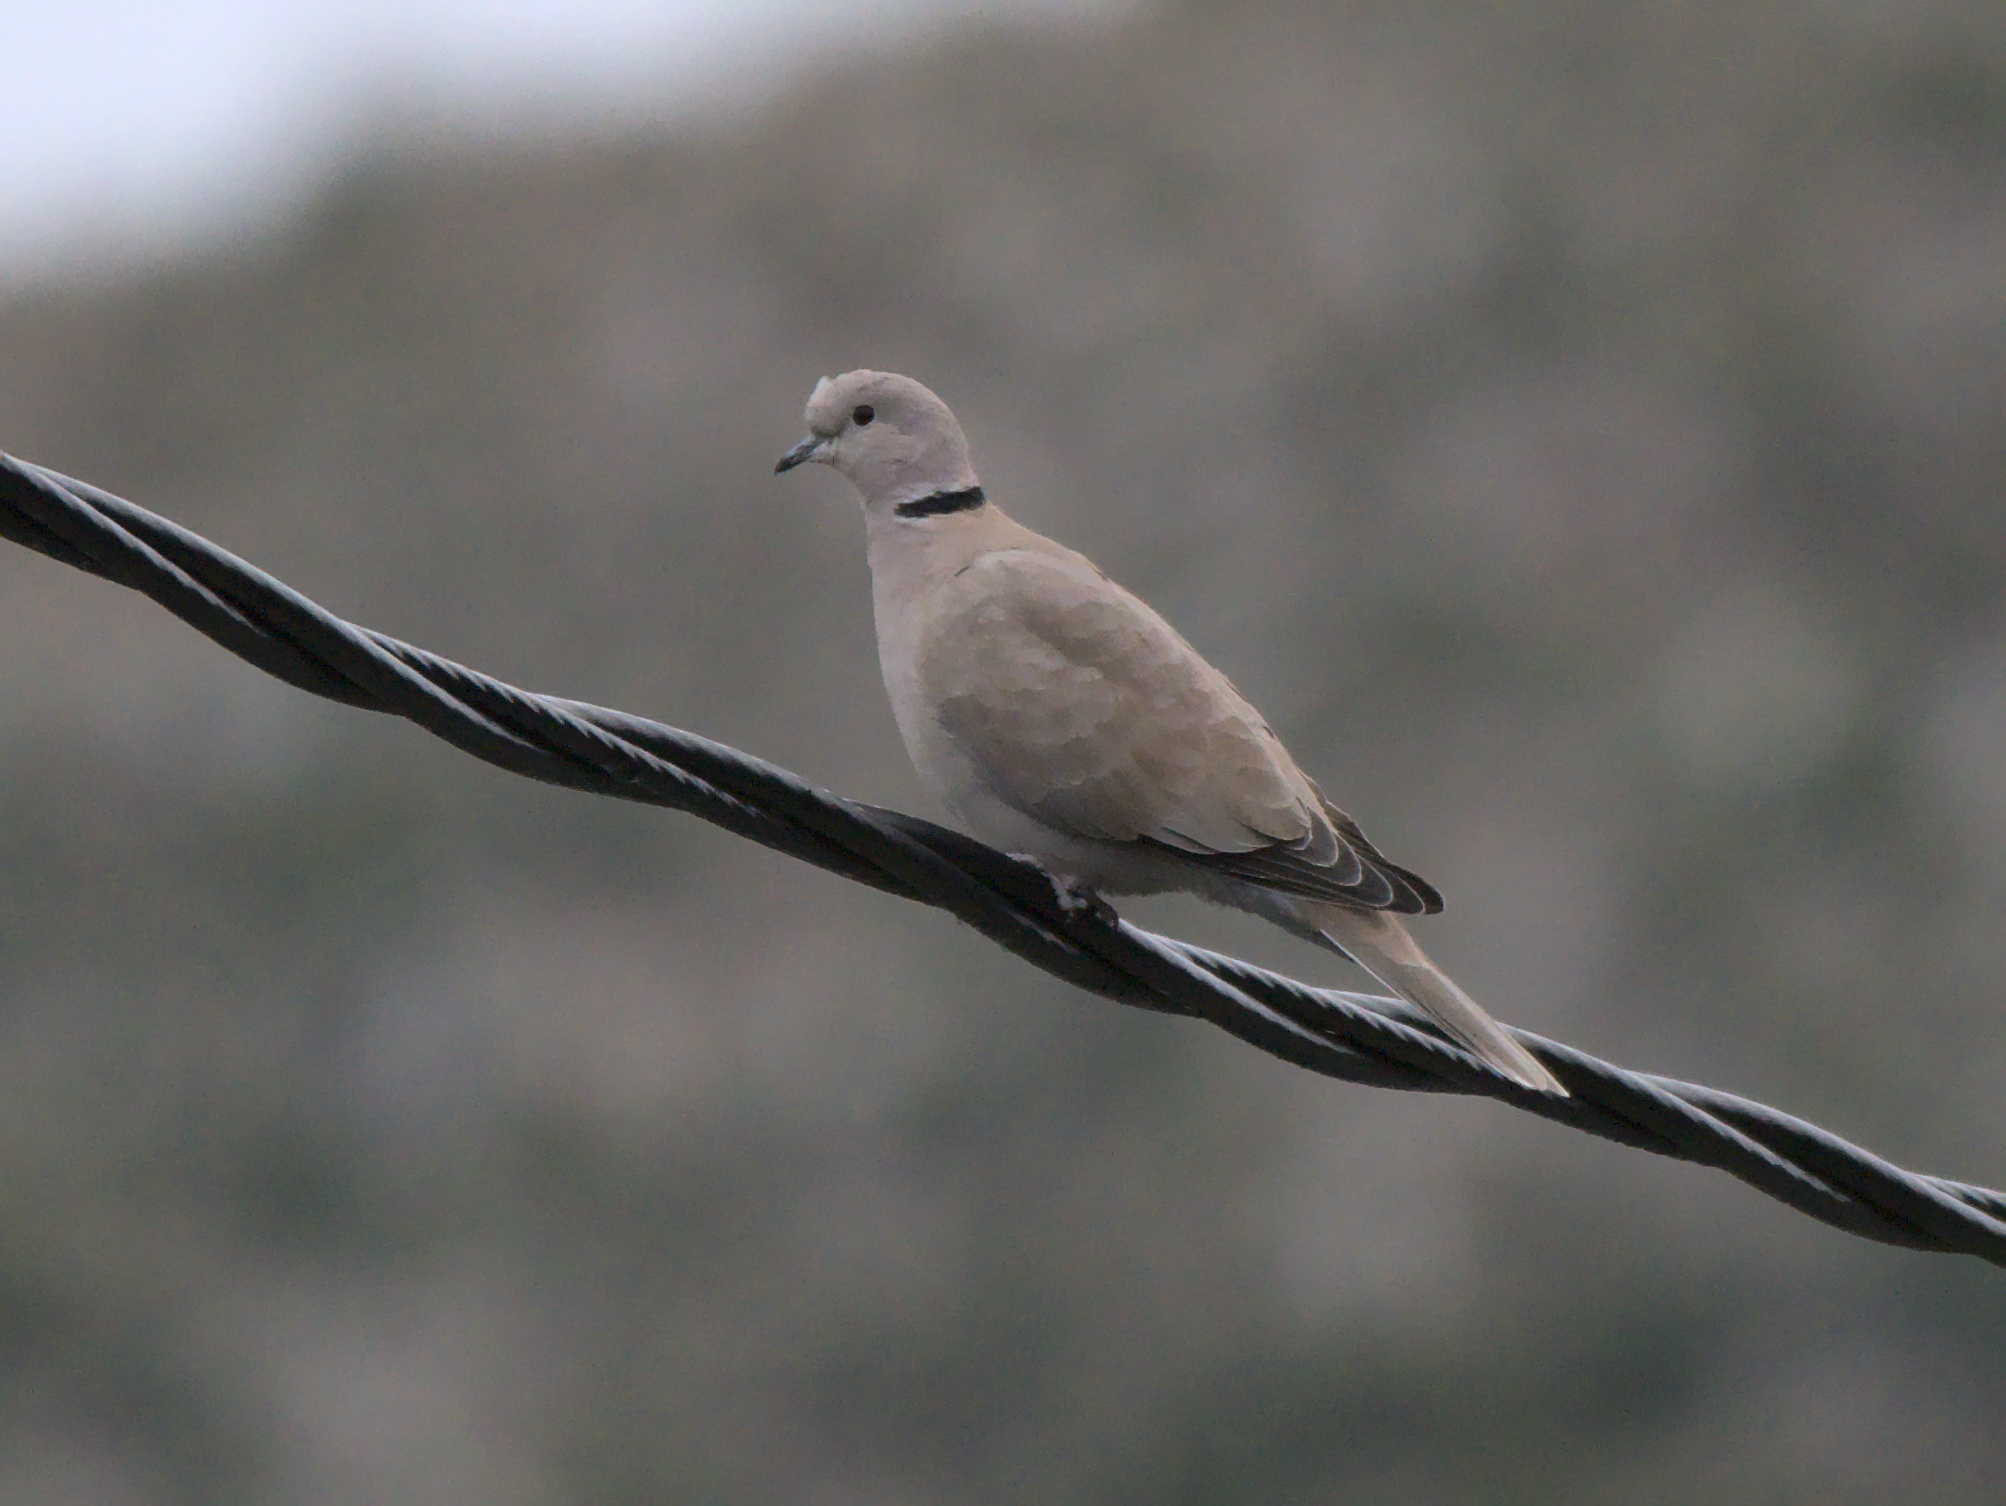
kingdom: Animalia
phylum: Chordata
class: Aves
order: Columbiformes
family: Columbidae
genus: Streptopelia
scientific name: Streptopelia decaocto
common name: Eurasian collared dove
